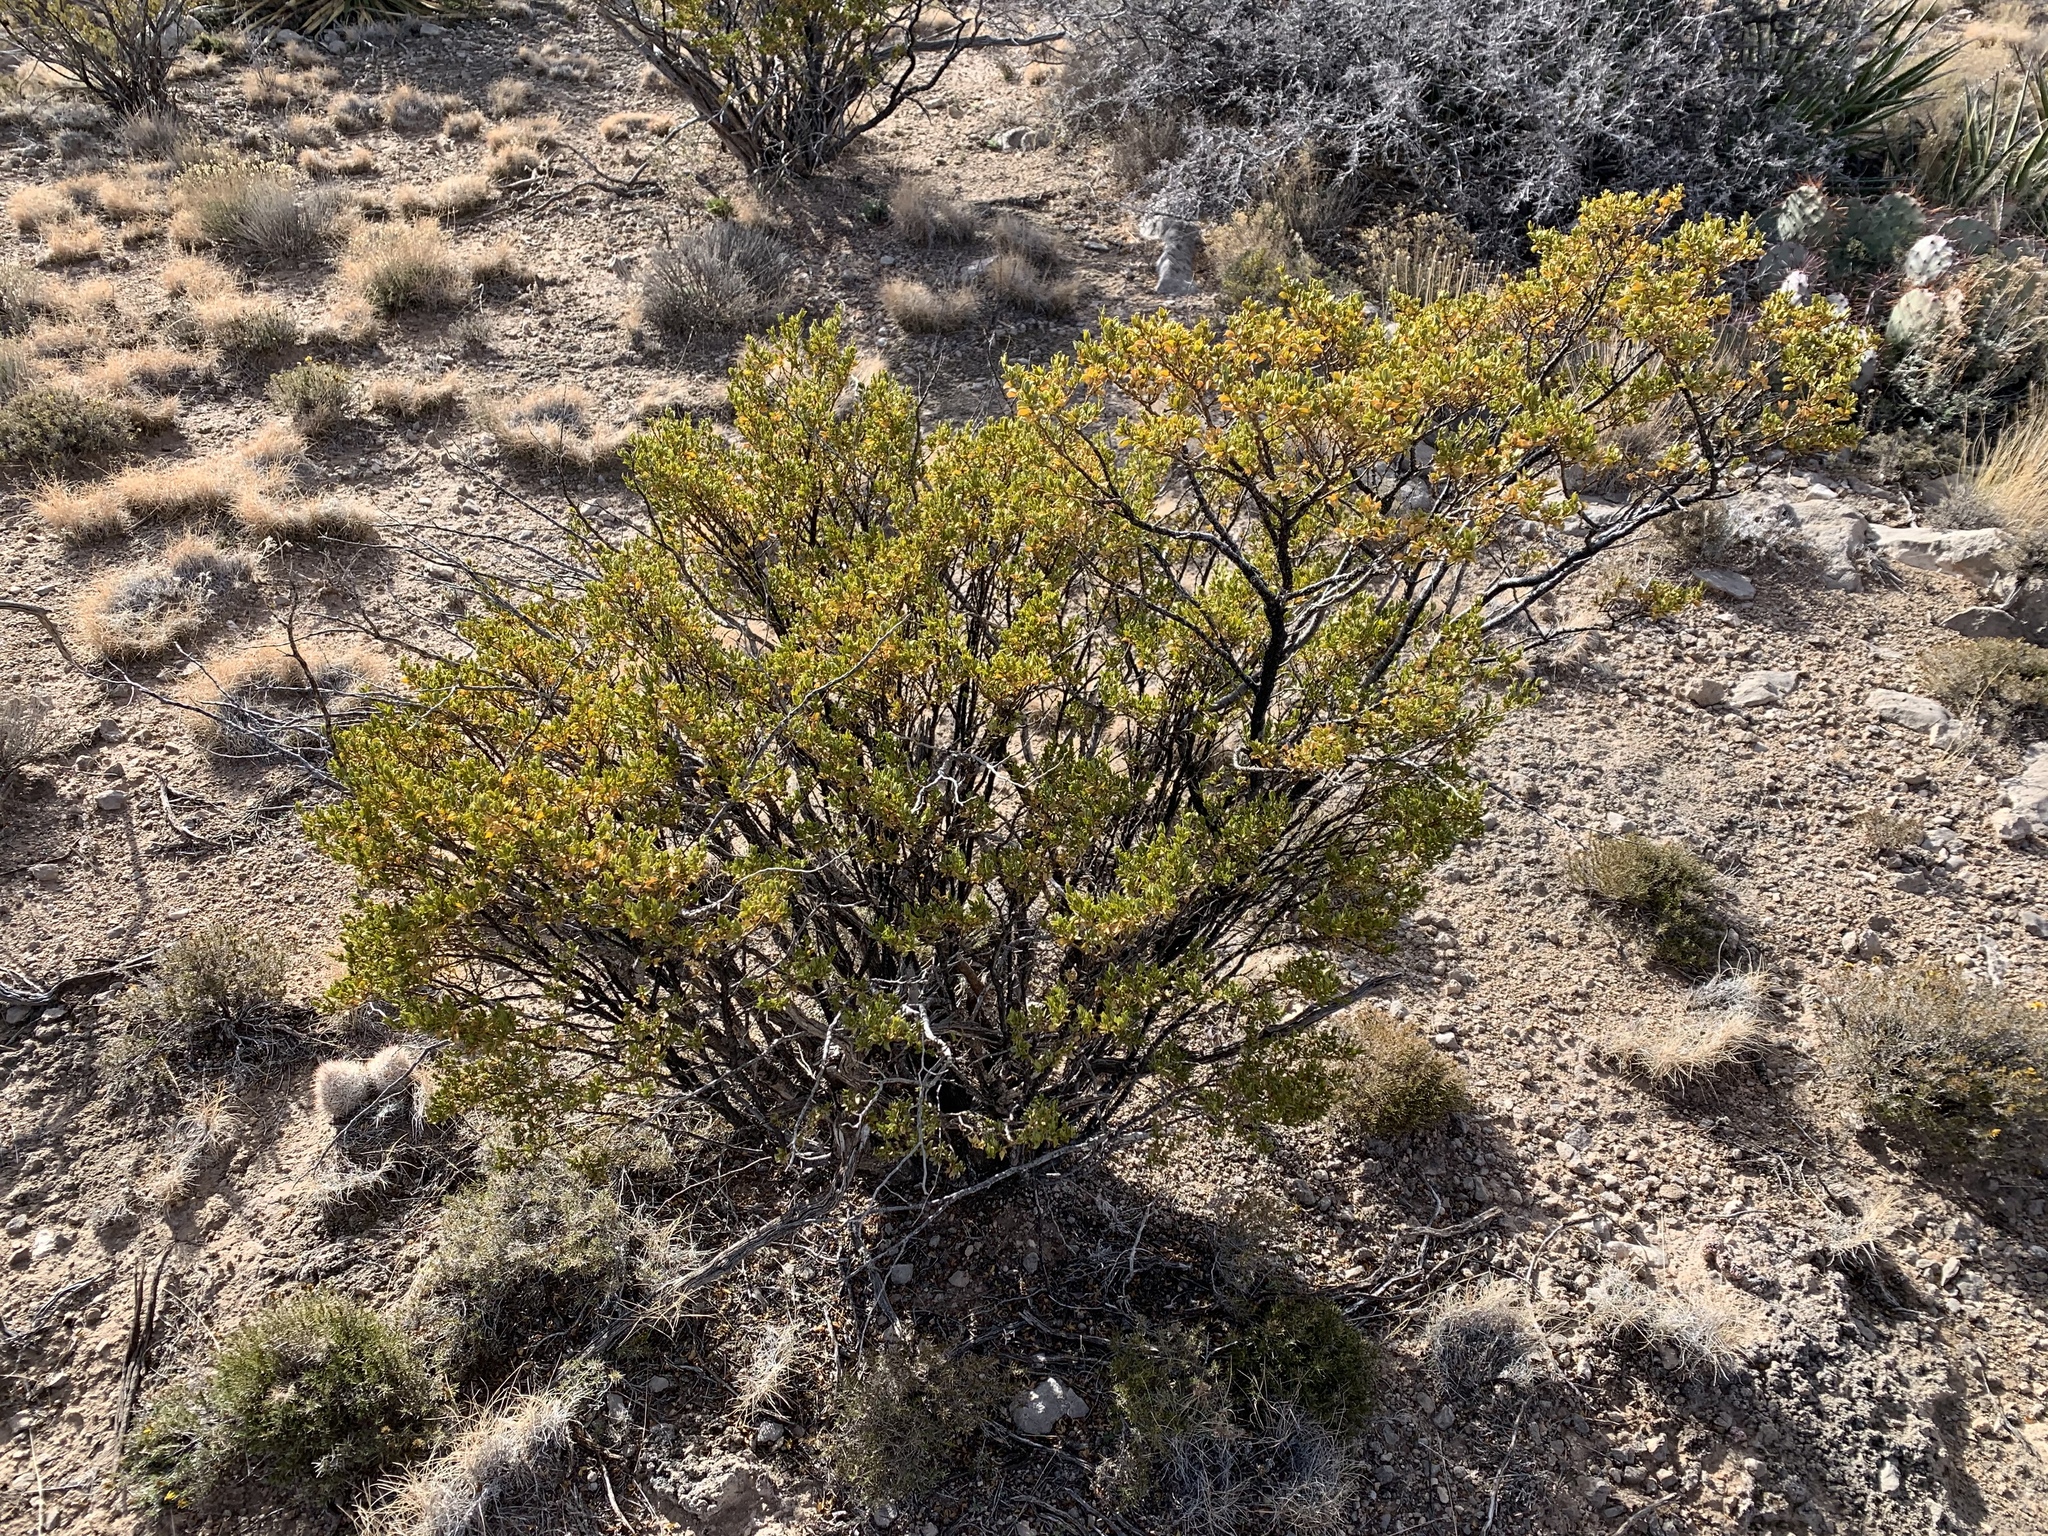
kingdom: Plantae
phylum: Tracheophyta
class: Magnoliopsida
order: Zygophyllales
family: Zygophyllaceae
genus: Larrea
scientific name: Larrea tridentata
